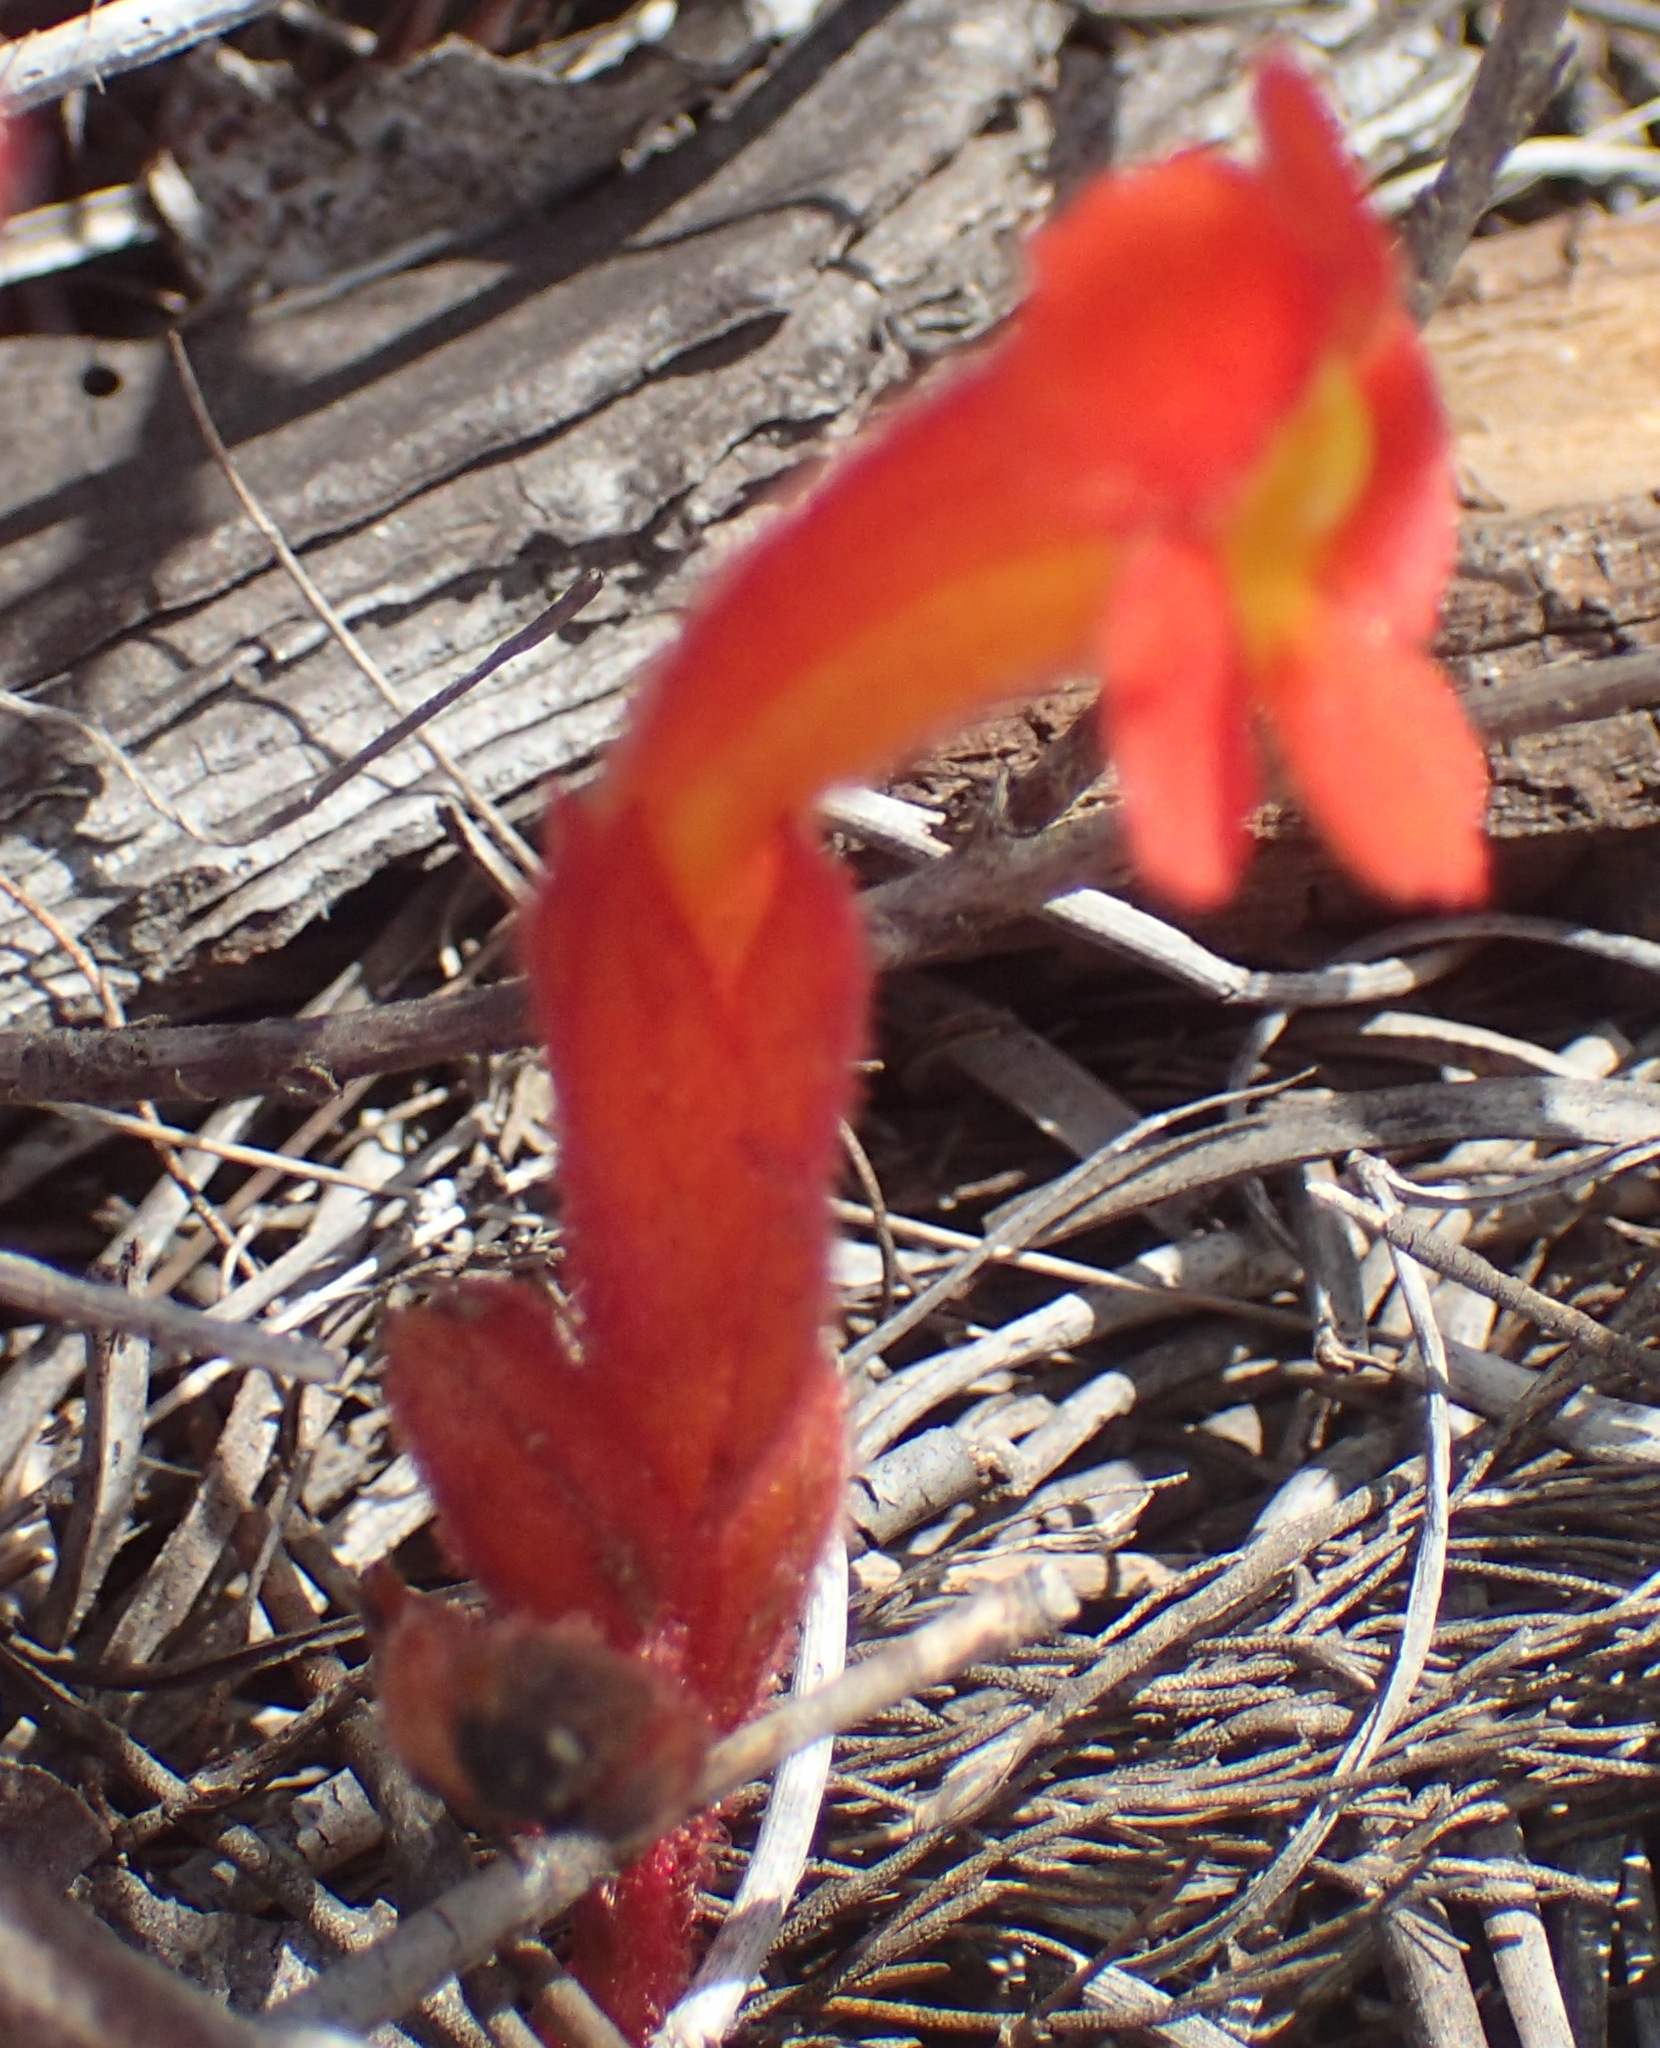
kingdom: Plantae
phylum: Tracheophyta
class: Magnoliopsida
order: Lamiales
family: Orobanchaceae
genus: Harveya
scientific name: Harveya bolusii
